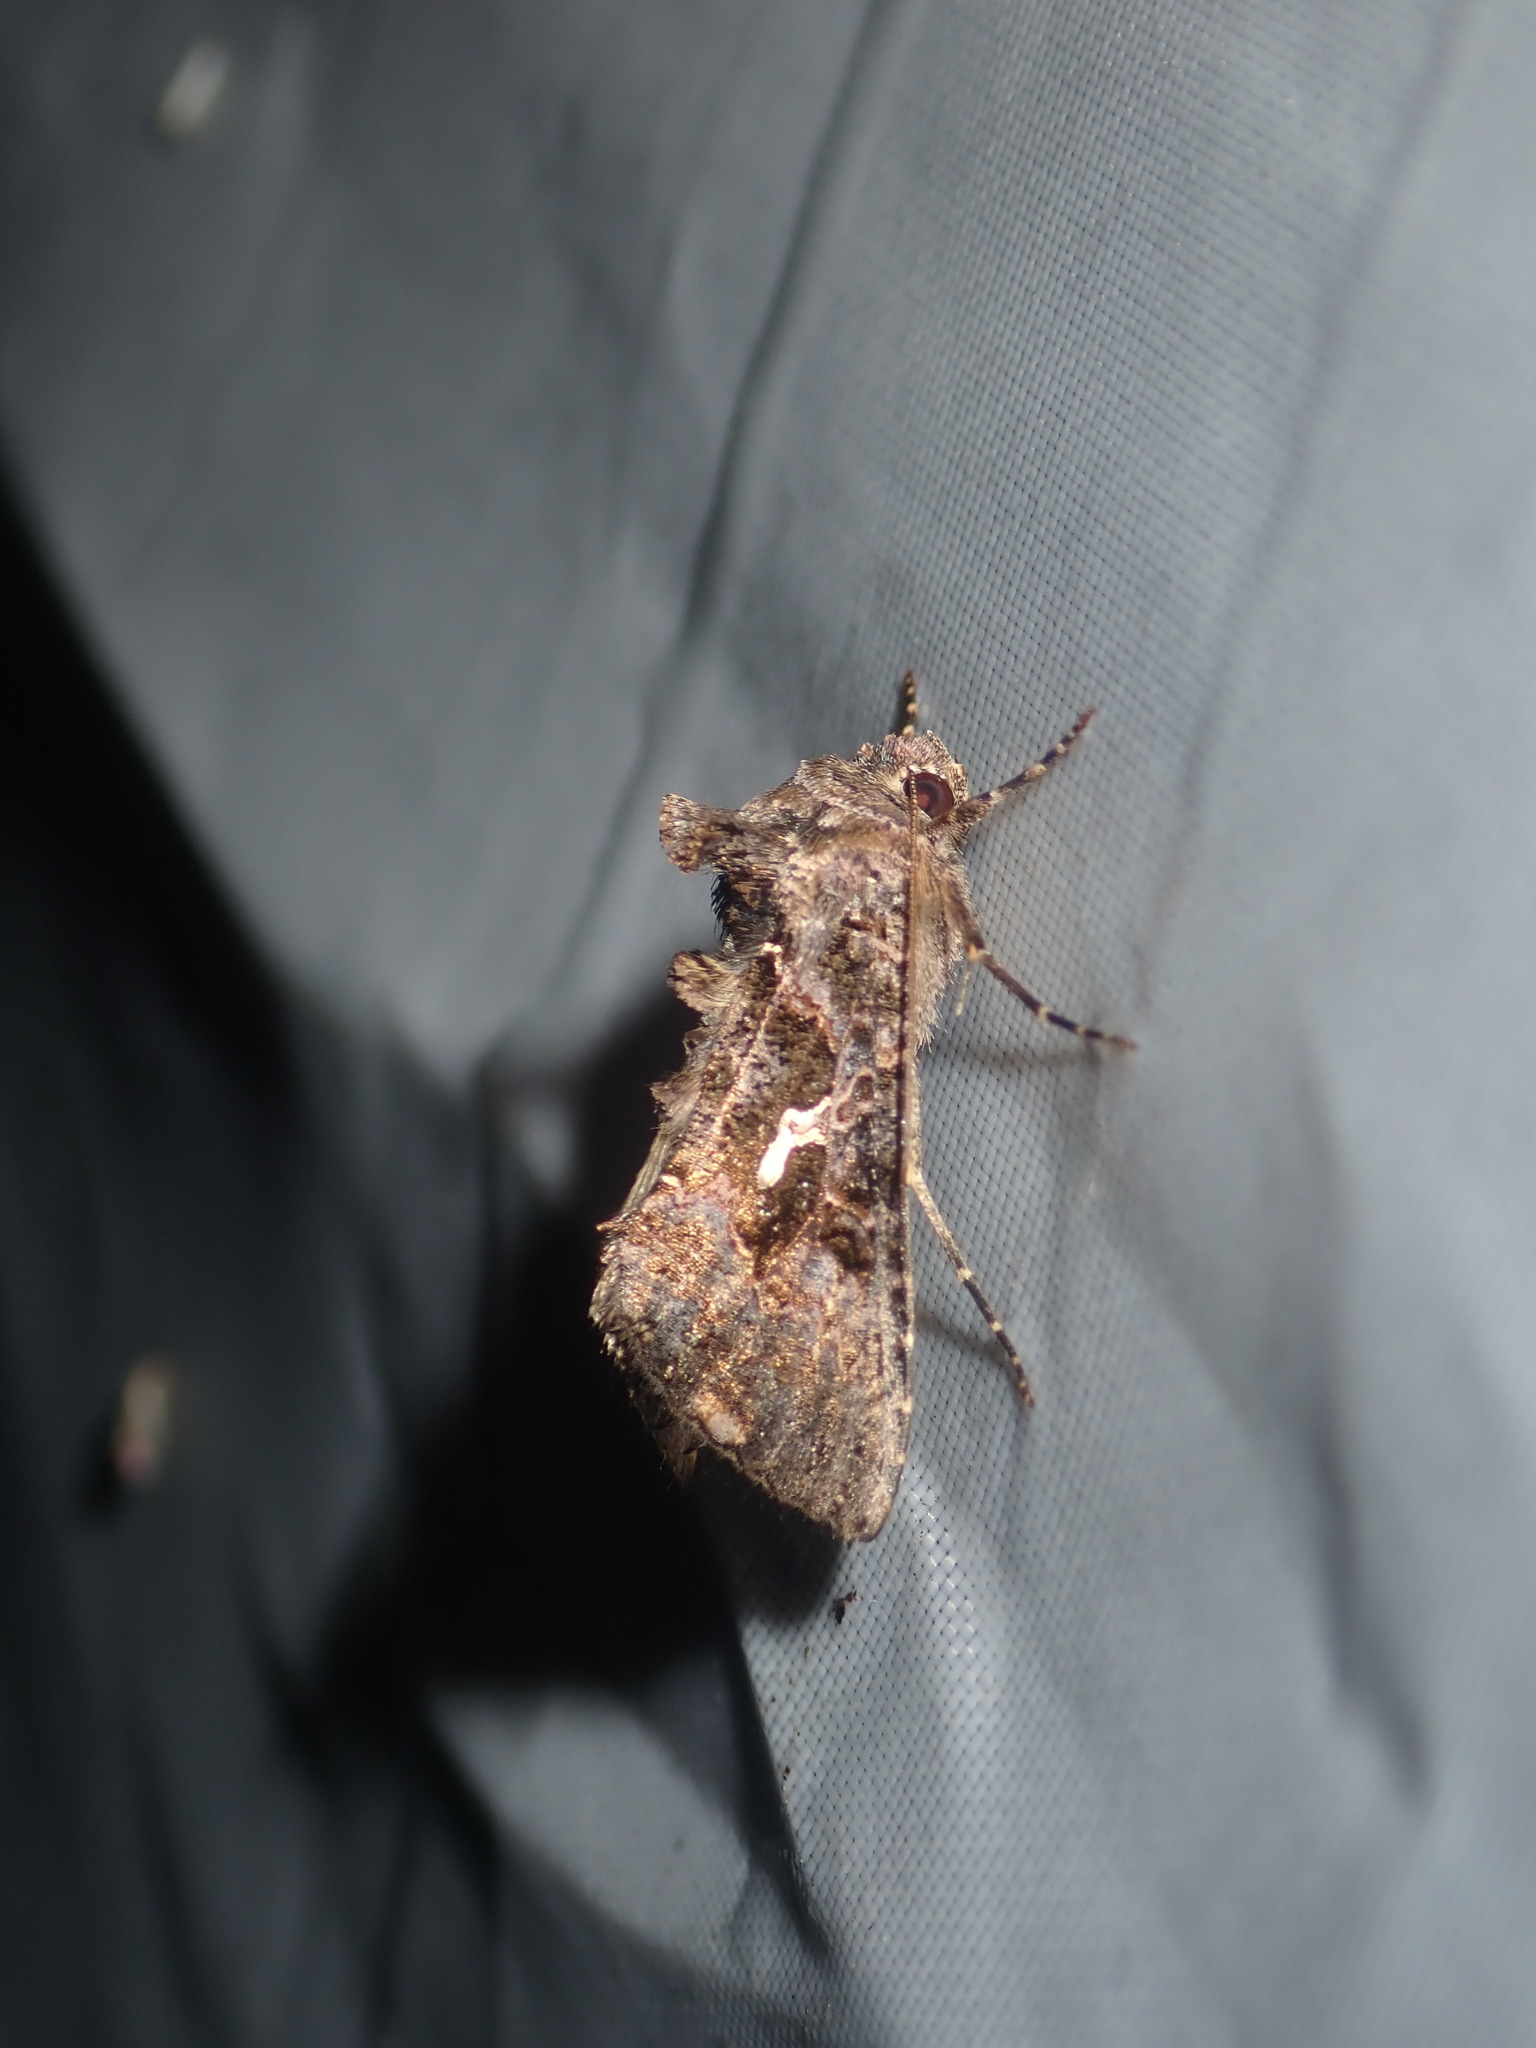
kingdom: Animalia
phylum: Arthropoda
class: Insecta
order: Lepidoptera
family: Noctuidae
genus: Ctenoplusia
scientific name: Ctenoplusia limbirena
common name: Scar bank gem
